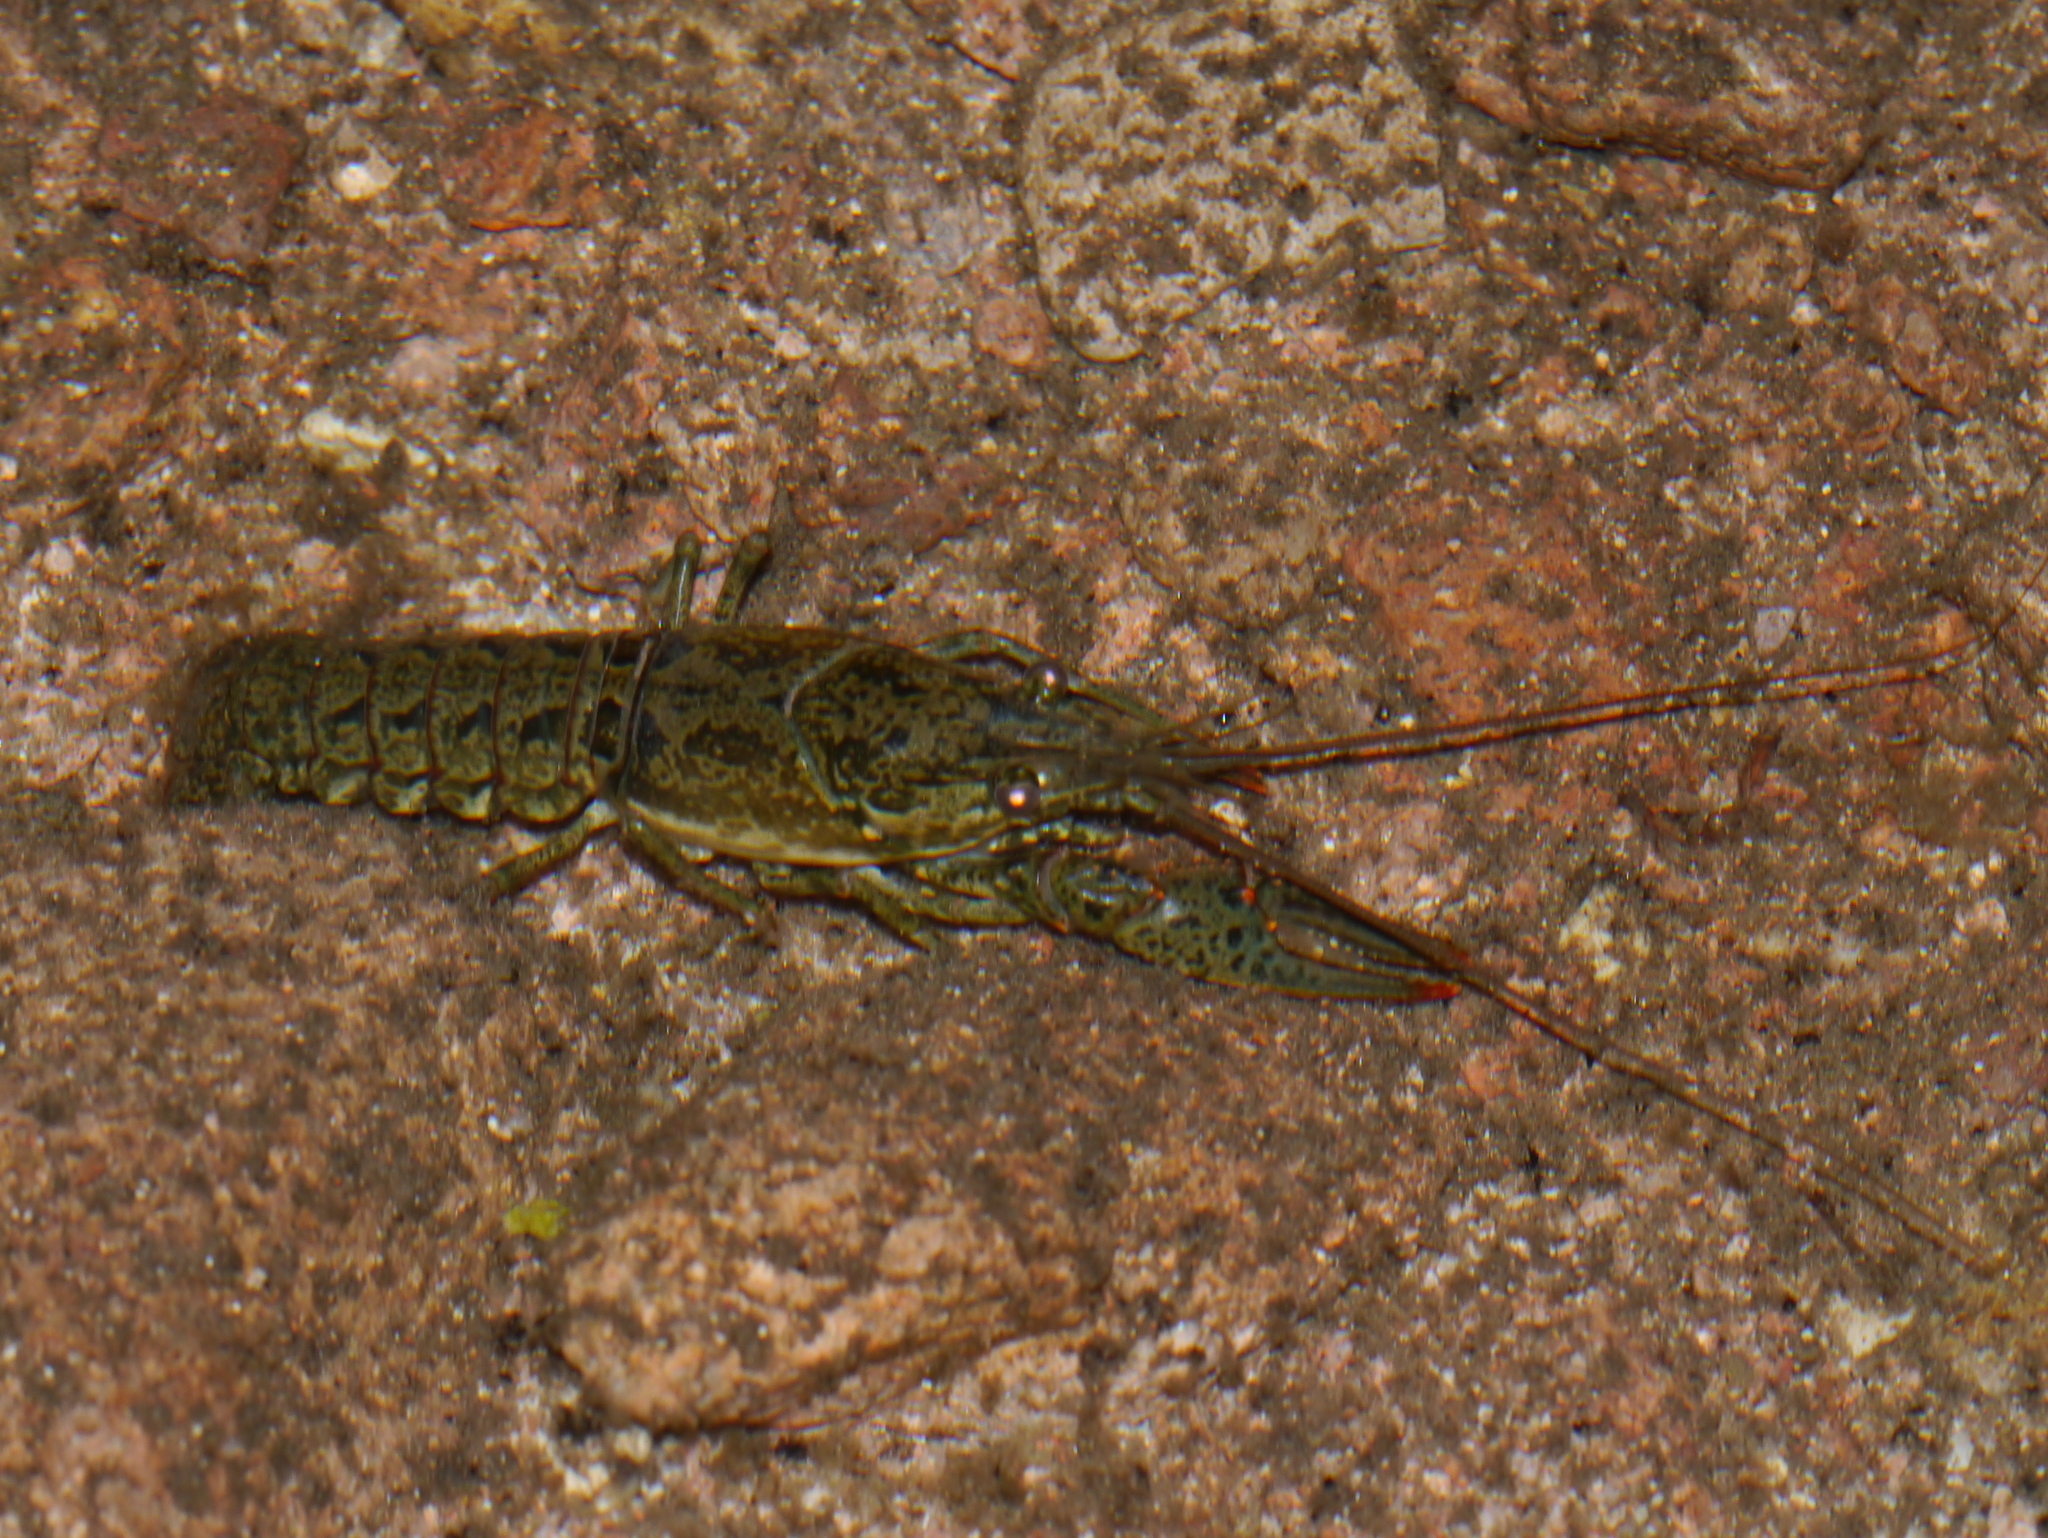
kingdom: Animalia
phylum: Arthropoda
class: Malacostraca
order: Decapoda
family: Cambaridae
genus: Faxonius
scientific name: Faxonius virilis
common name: Virile crayfish
